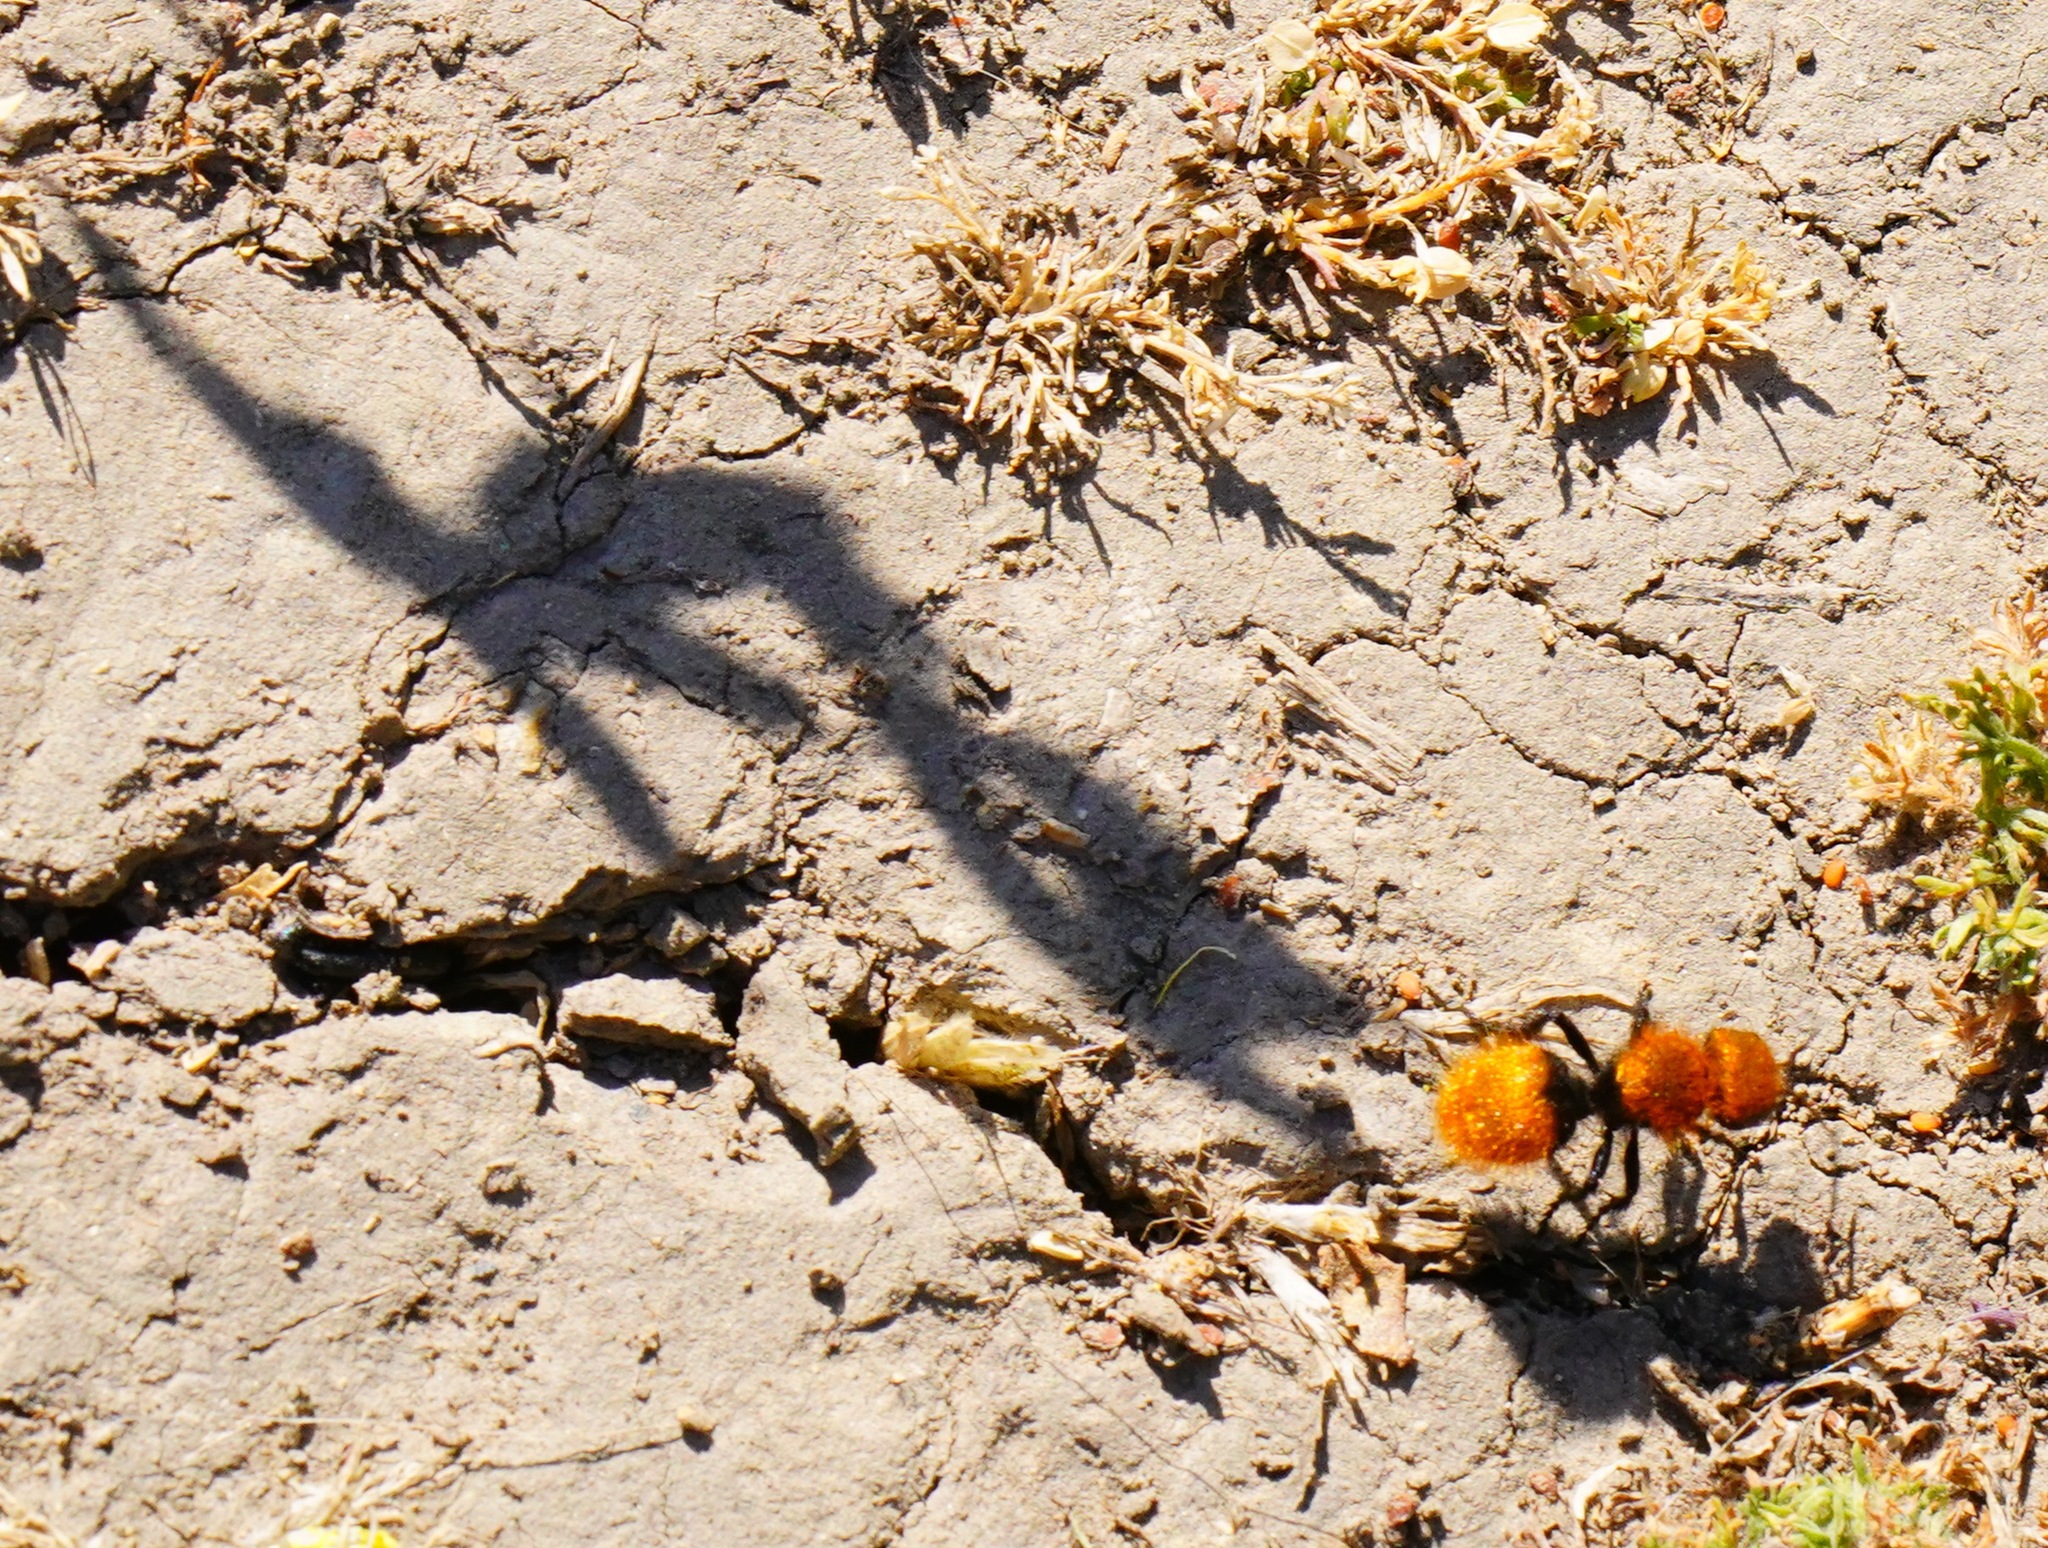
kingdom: Animalia
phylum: Arthropoda
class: Insecta
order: Hymenoptera
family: Mutillidae
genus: Dasymutilla
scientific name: Dasymutilla
